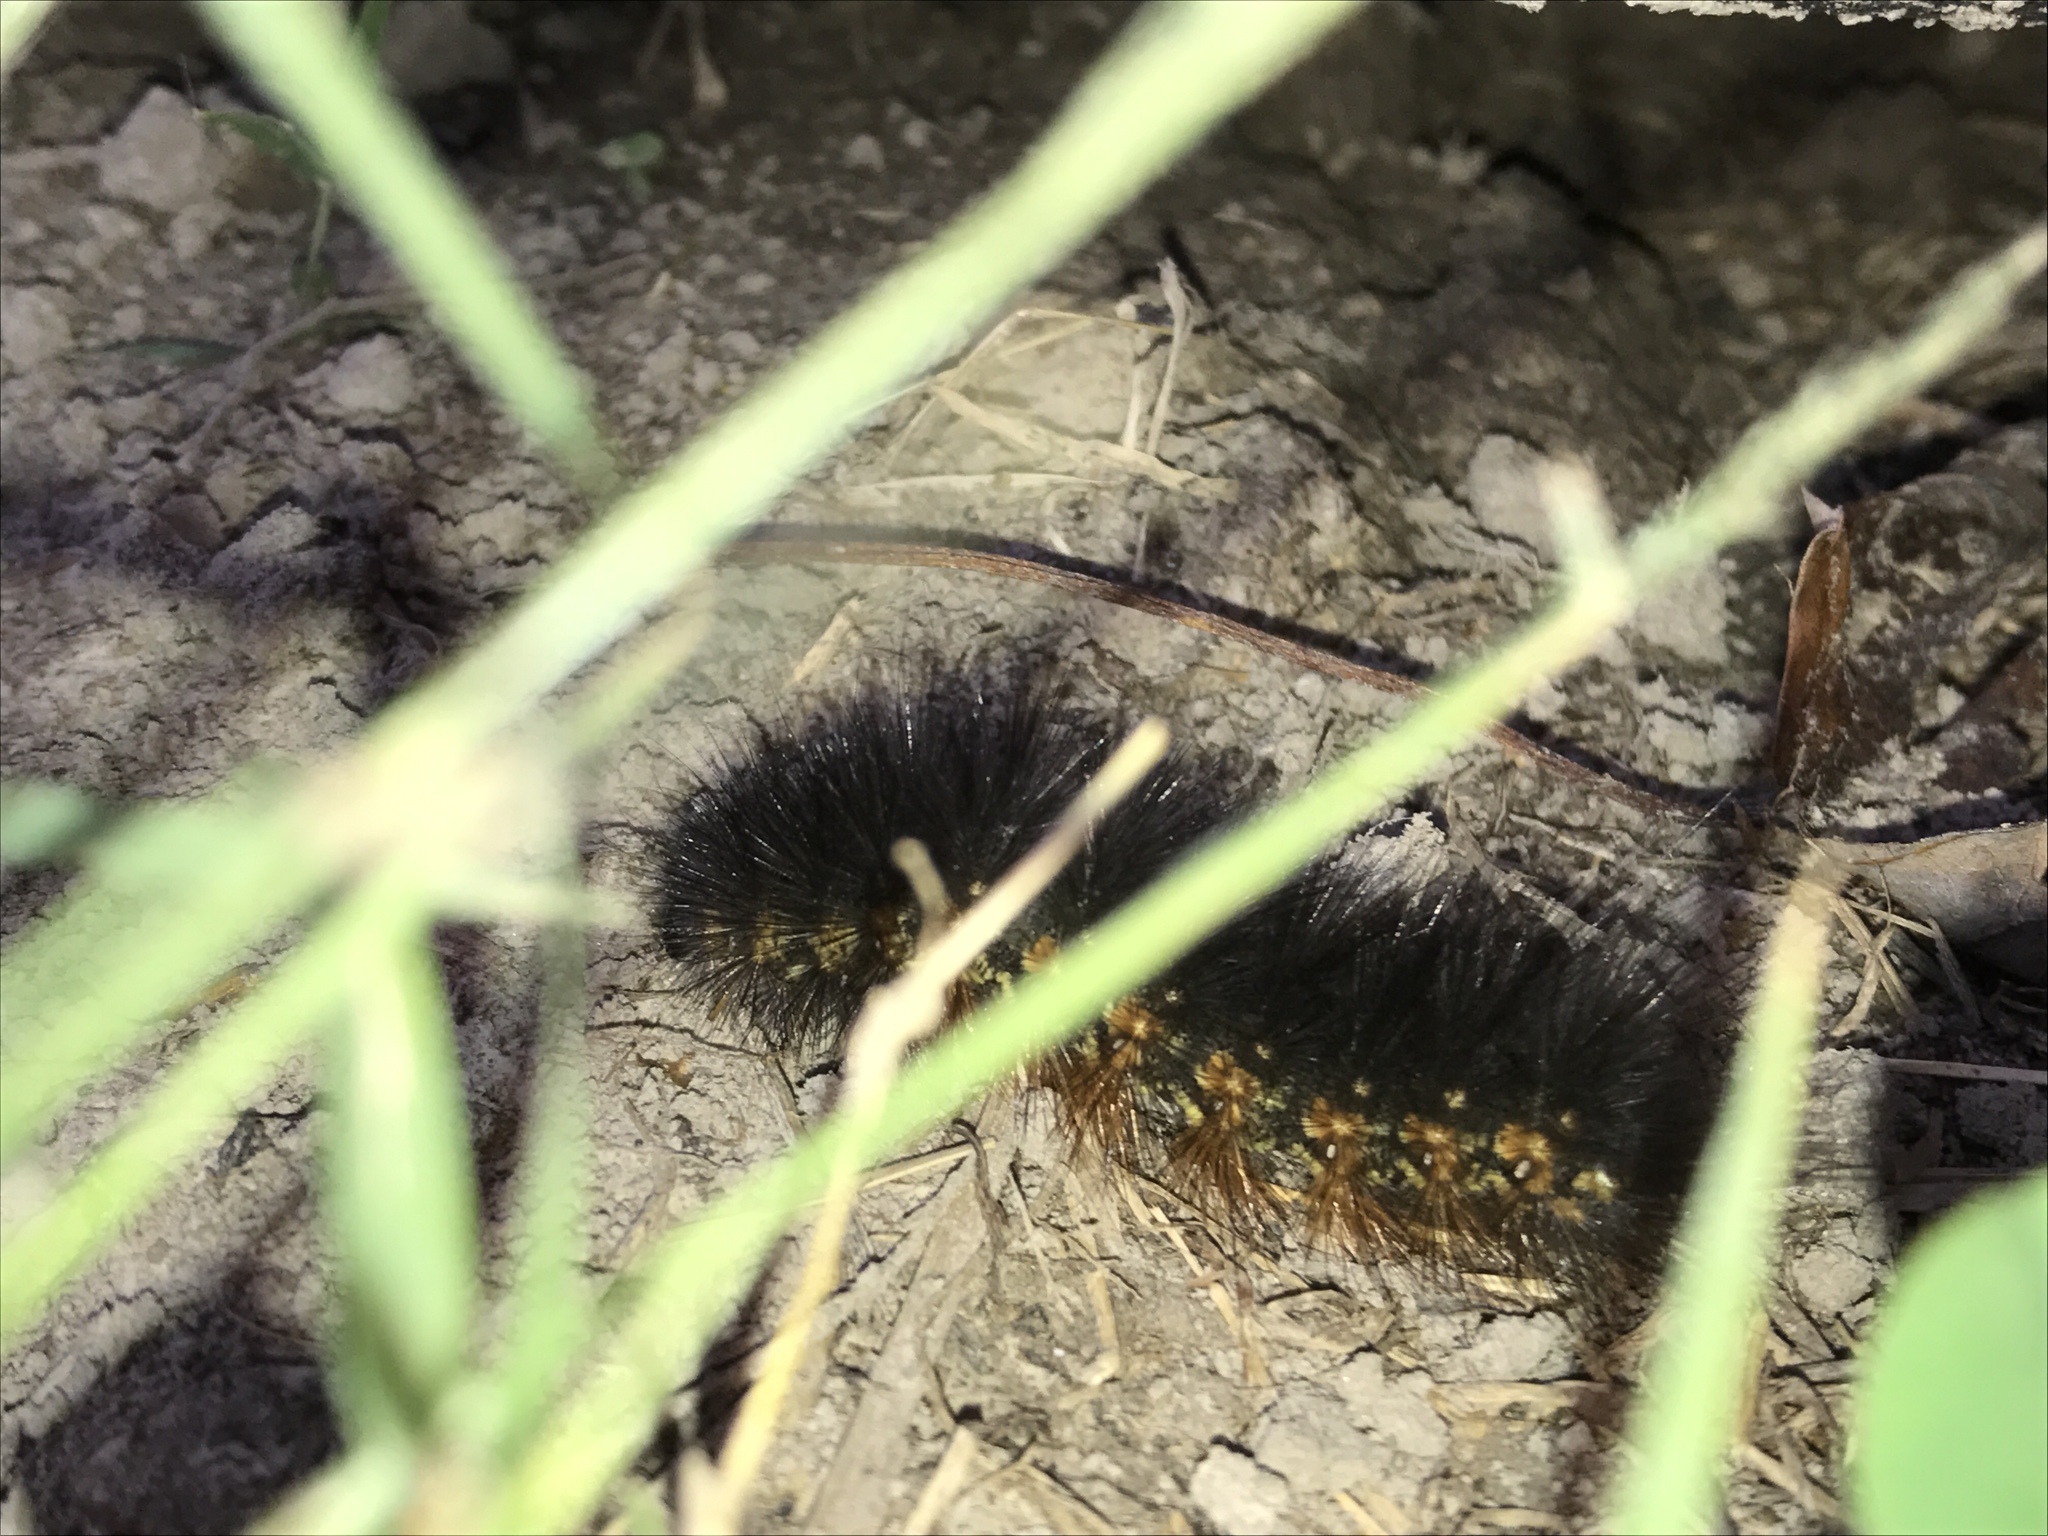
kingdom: Animalia
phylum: Arthropoda
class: Insecta
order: Lepidoptera
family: Erebidae
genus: Estigmene
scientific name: Estigmene acrea
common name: Salt marsh moth
